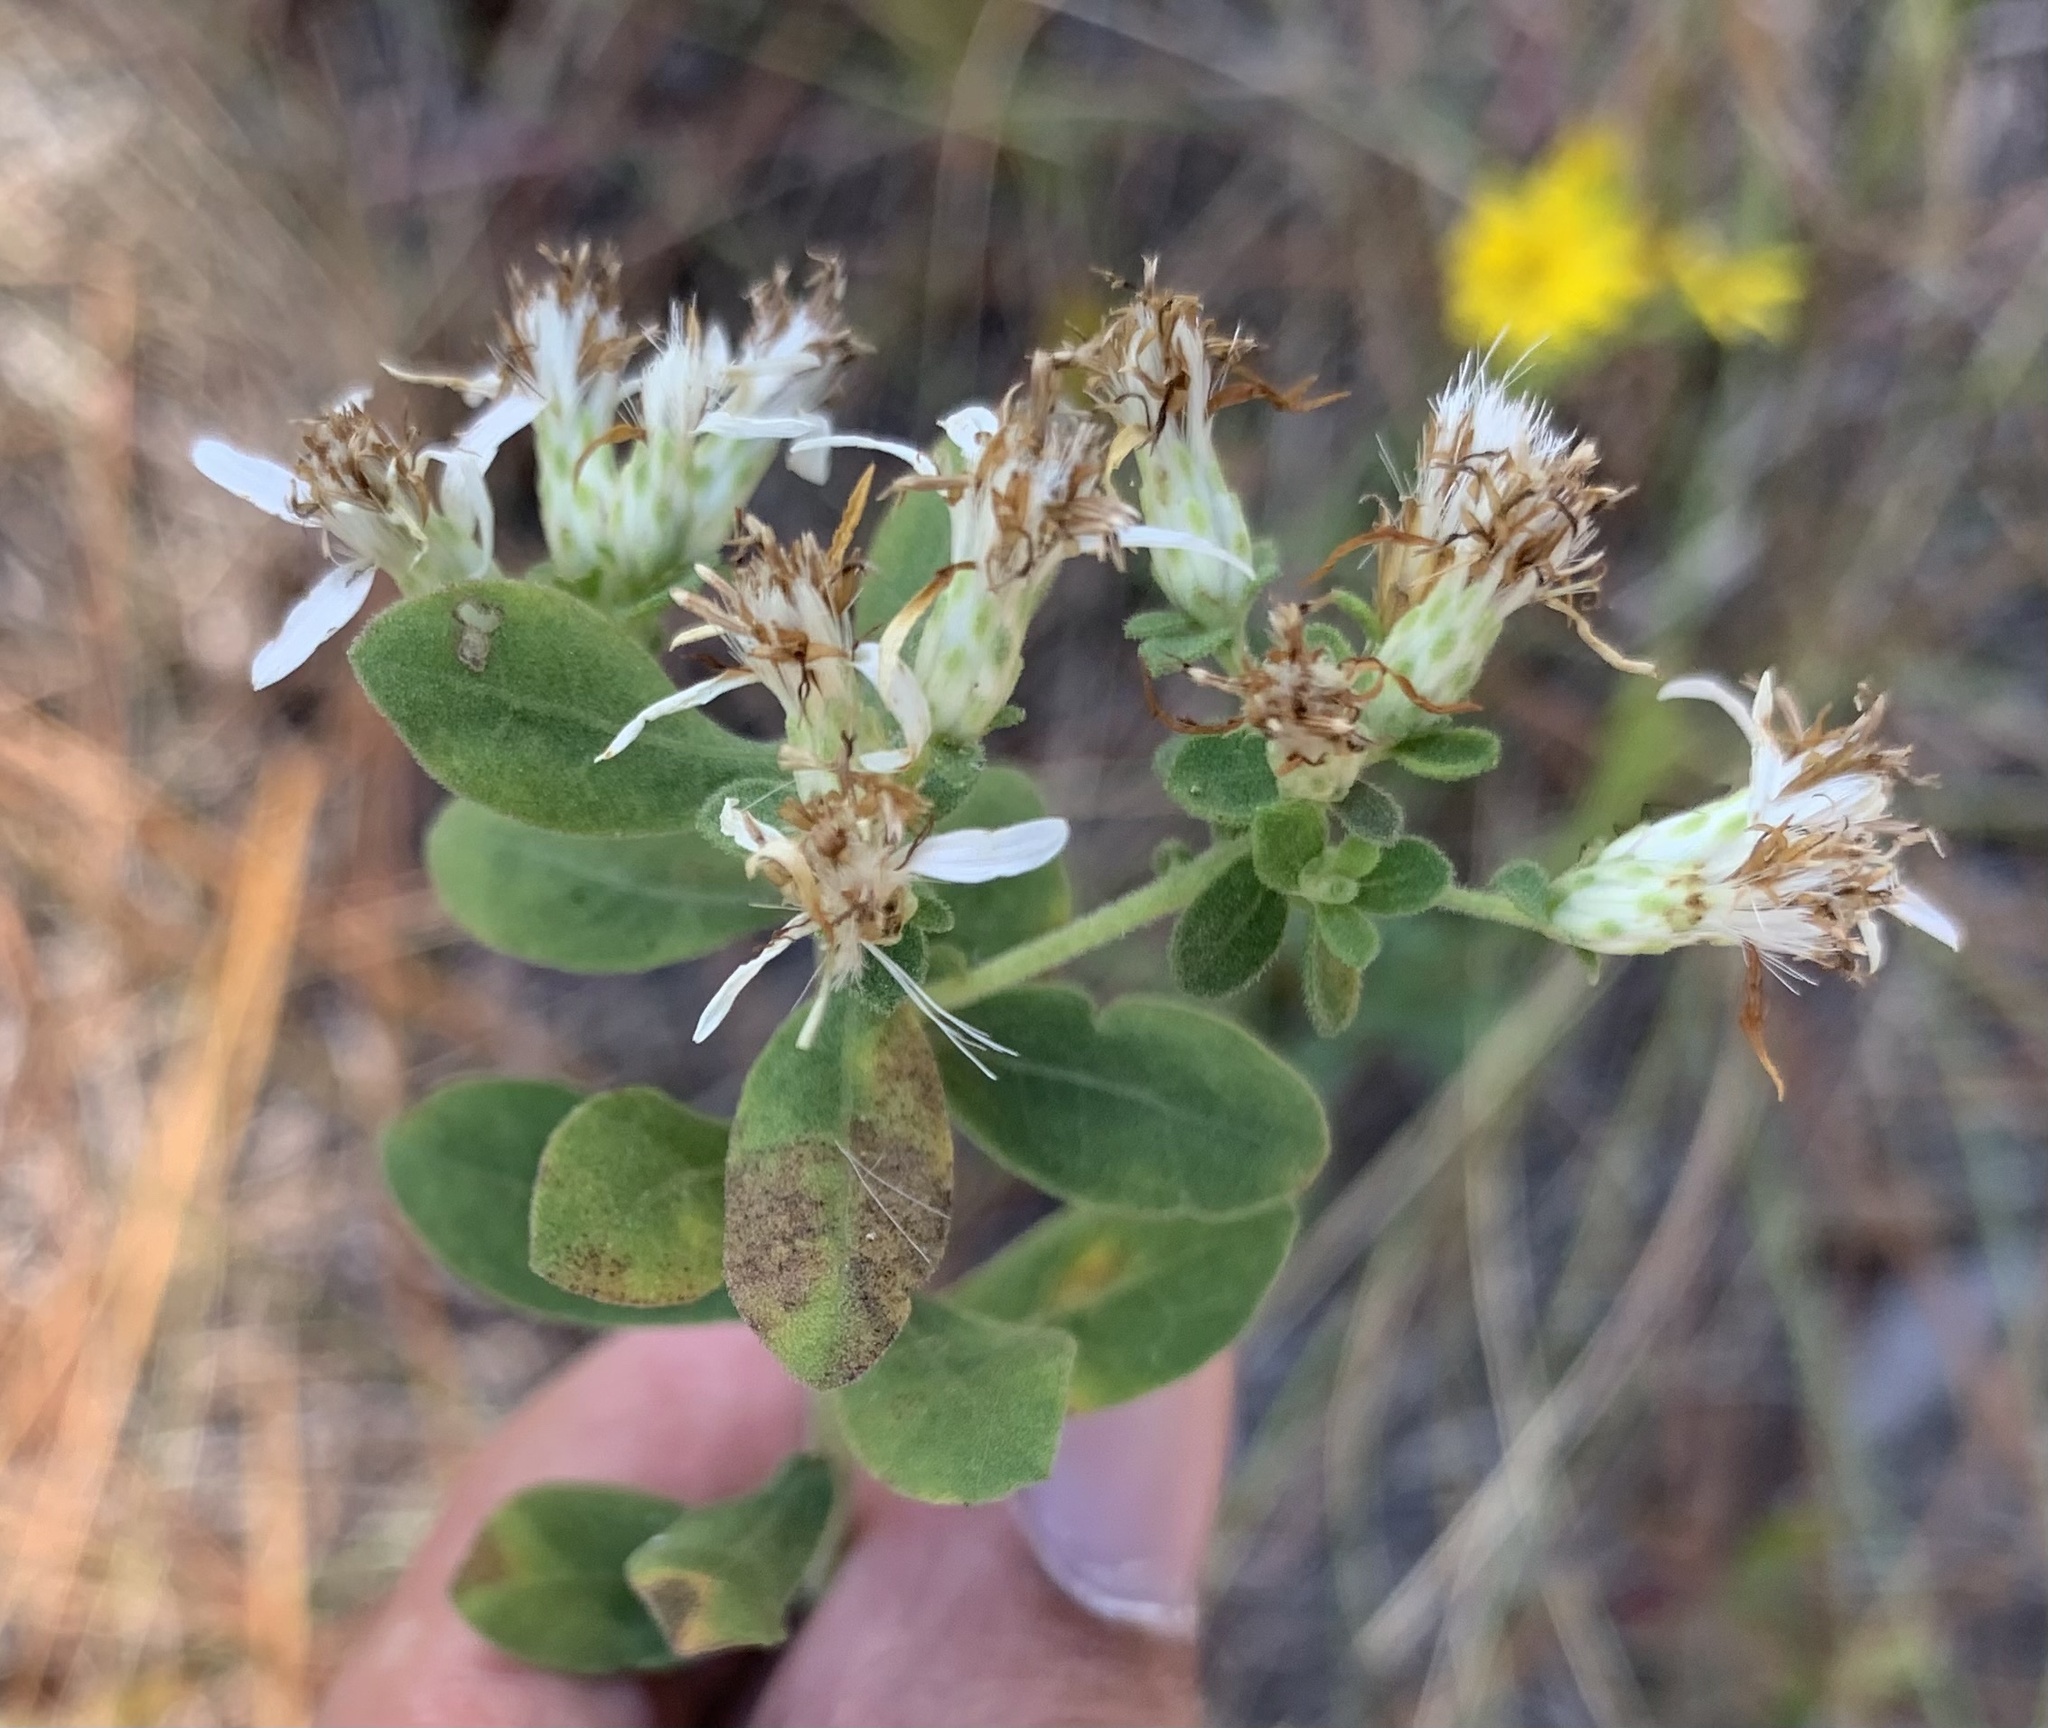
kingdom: Plantae
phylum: Tracheophyta
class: Magnoliopsida
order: Asterales
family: Asteraceae
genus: Sericocarpus
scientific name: Sericocarpus tortifolius
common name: Dixie aster
